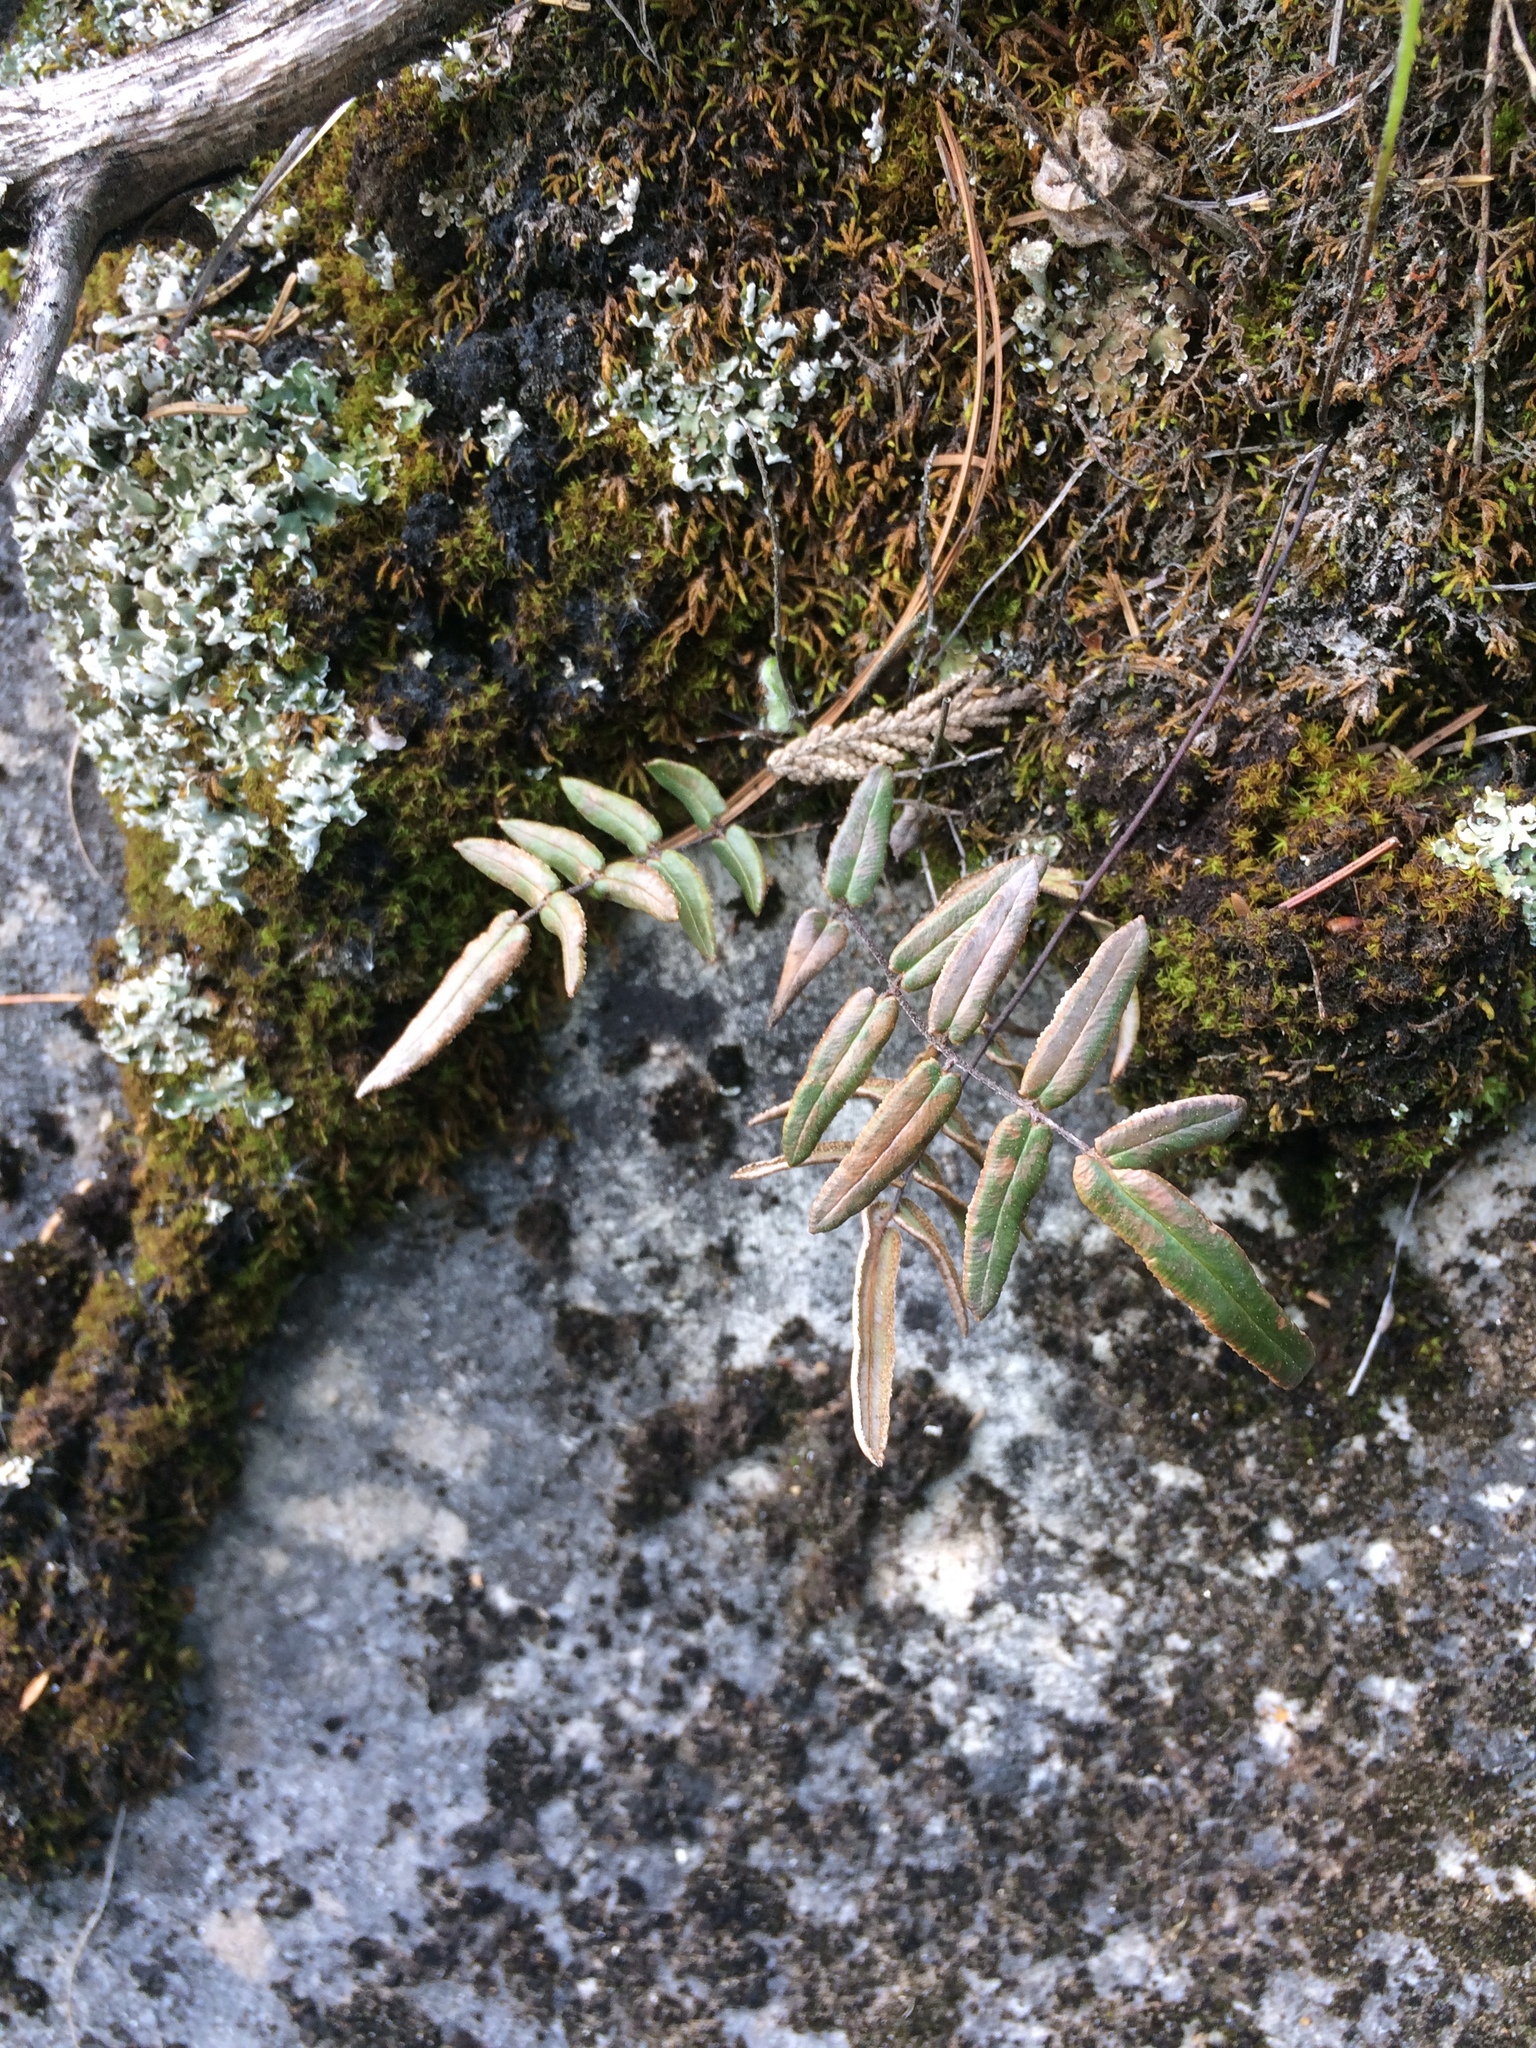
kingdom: Plantae
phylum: Tracheophyta
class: Polypodiopsida
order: Polypodiales
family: Pteridaceae
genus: Pellaea
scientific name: Pellaea atropurpurea
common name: Hairy cliffbrake
